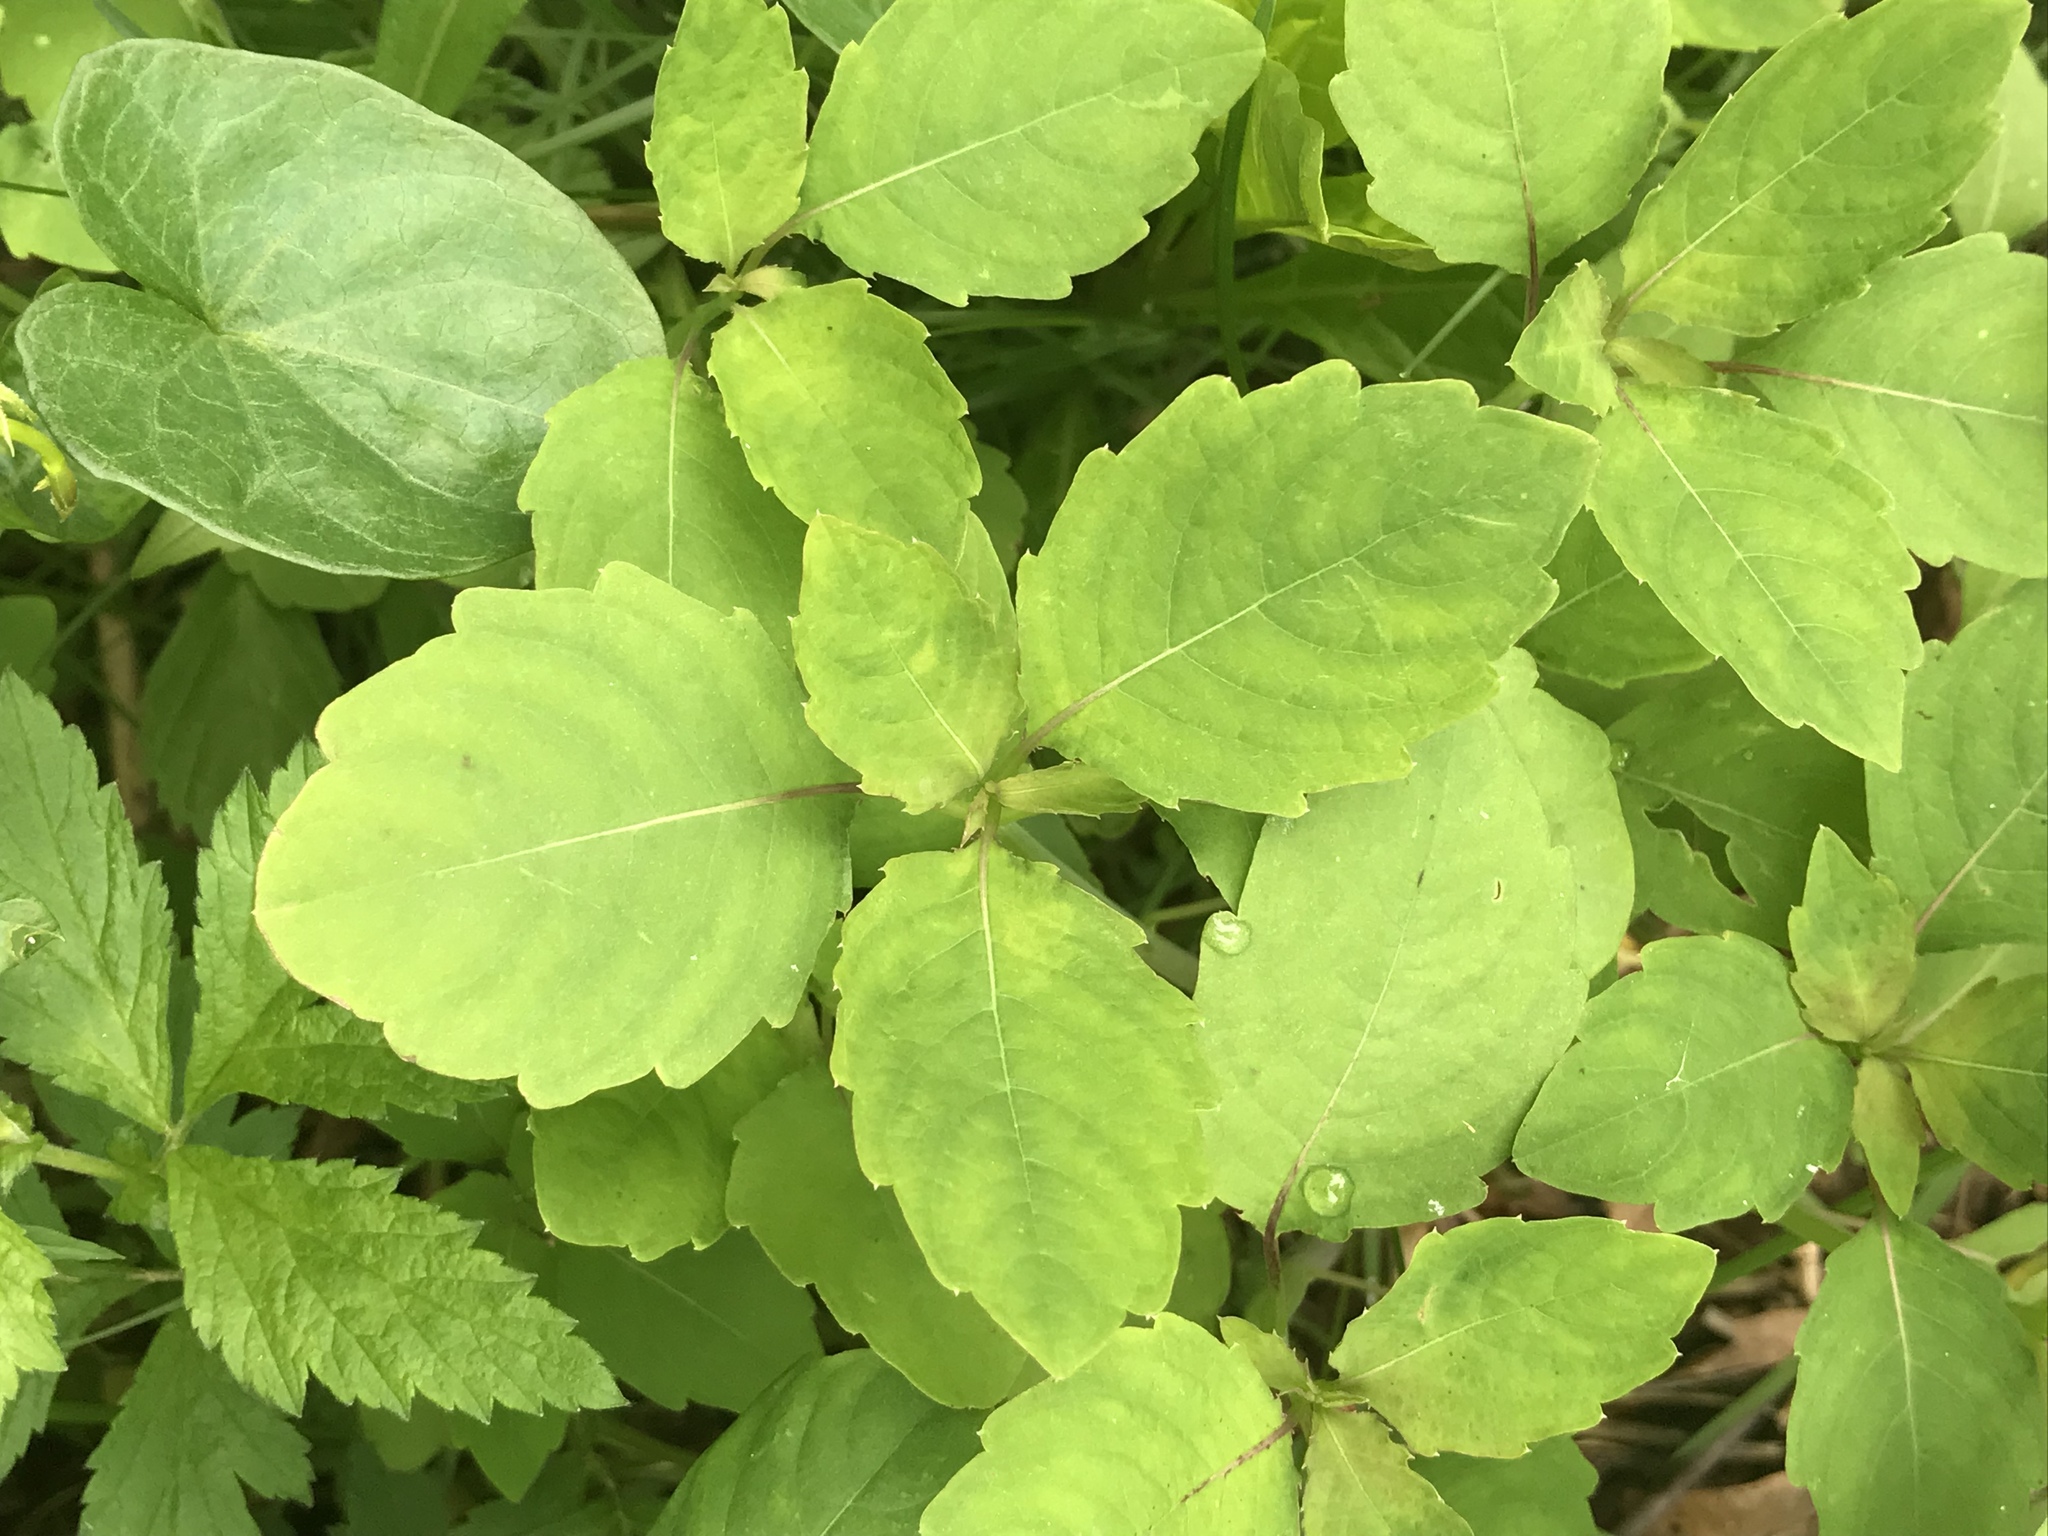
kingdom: Plantae
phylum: Tracheophyta
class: Magnoliopsida
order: Ericales
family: Balsaminaceae
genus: Impatiens
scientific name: Impatiens capensis
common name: Orange balsam
